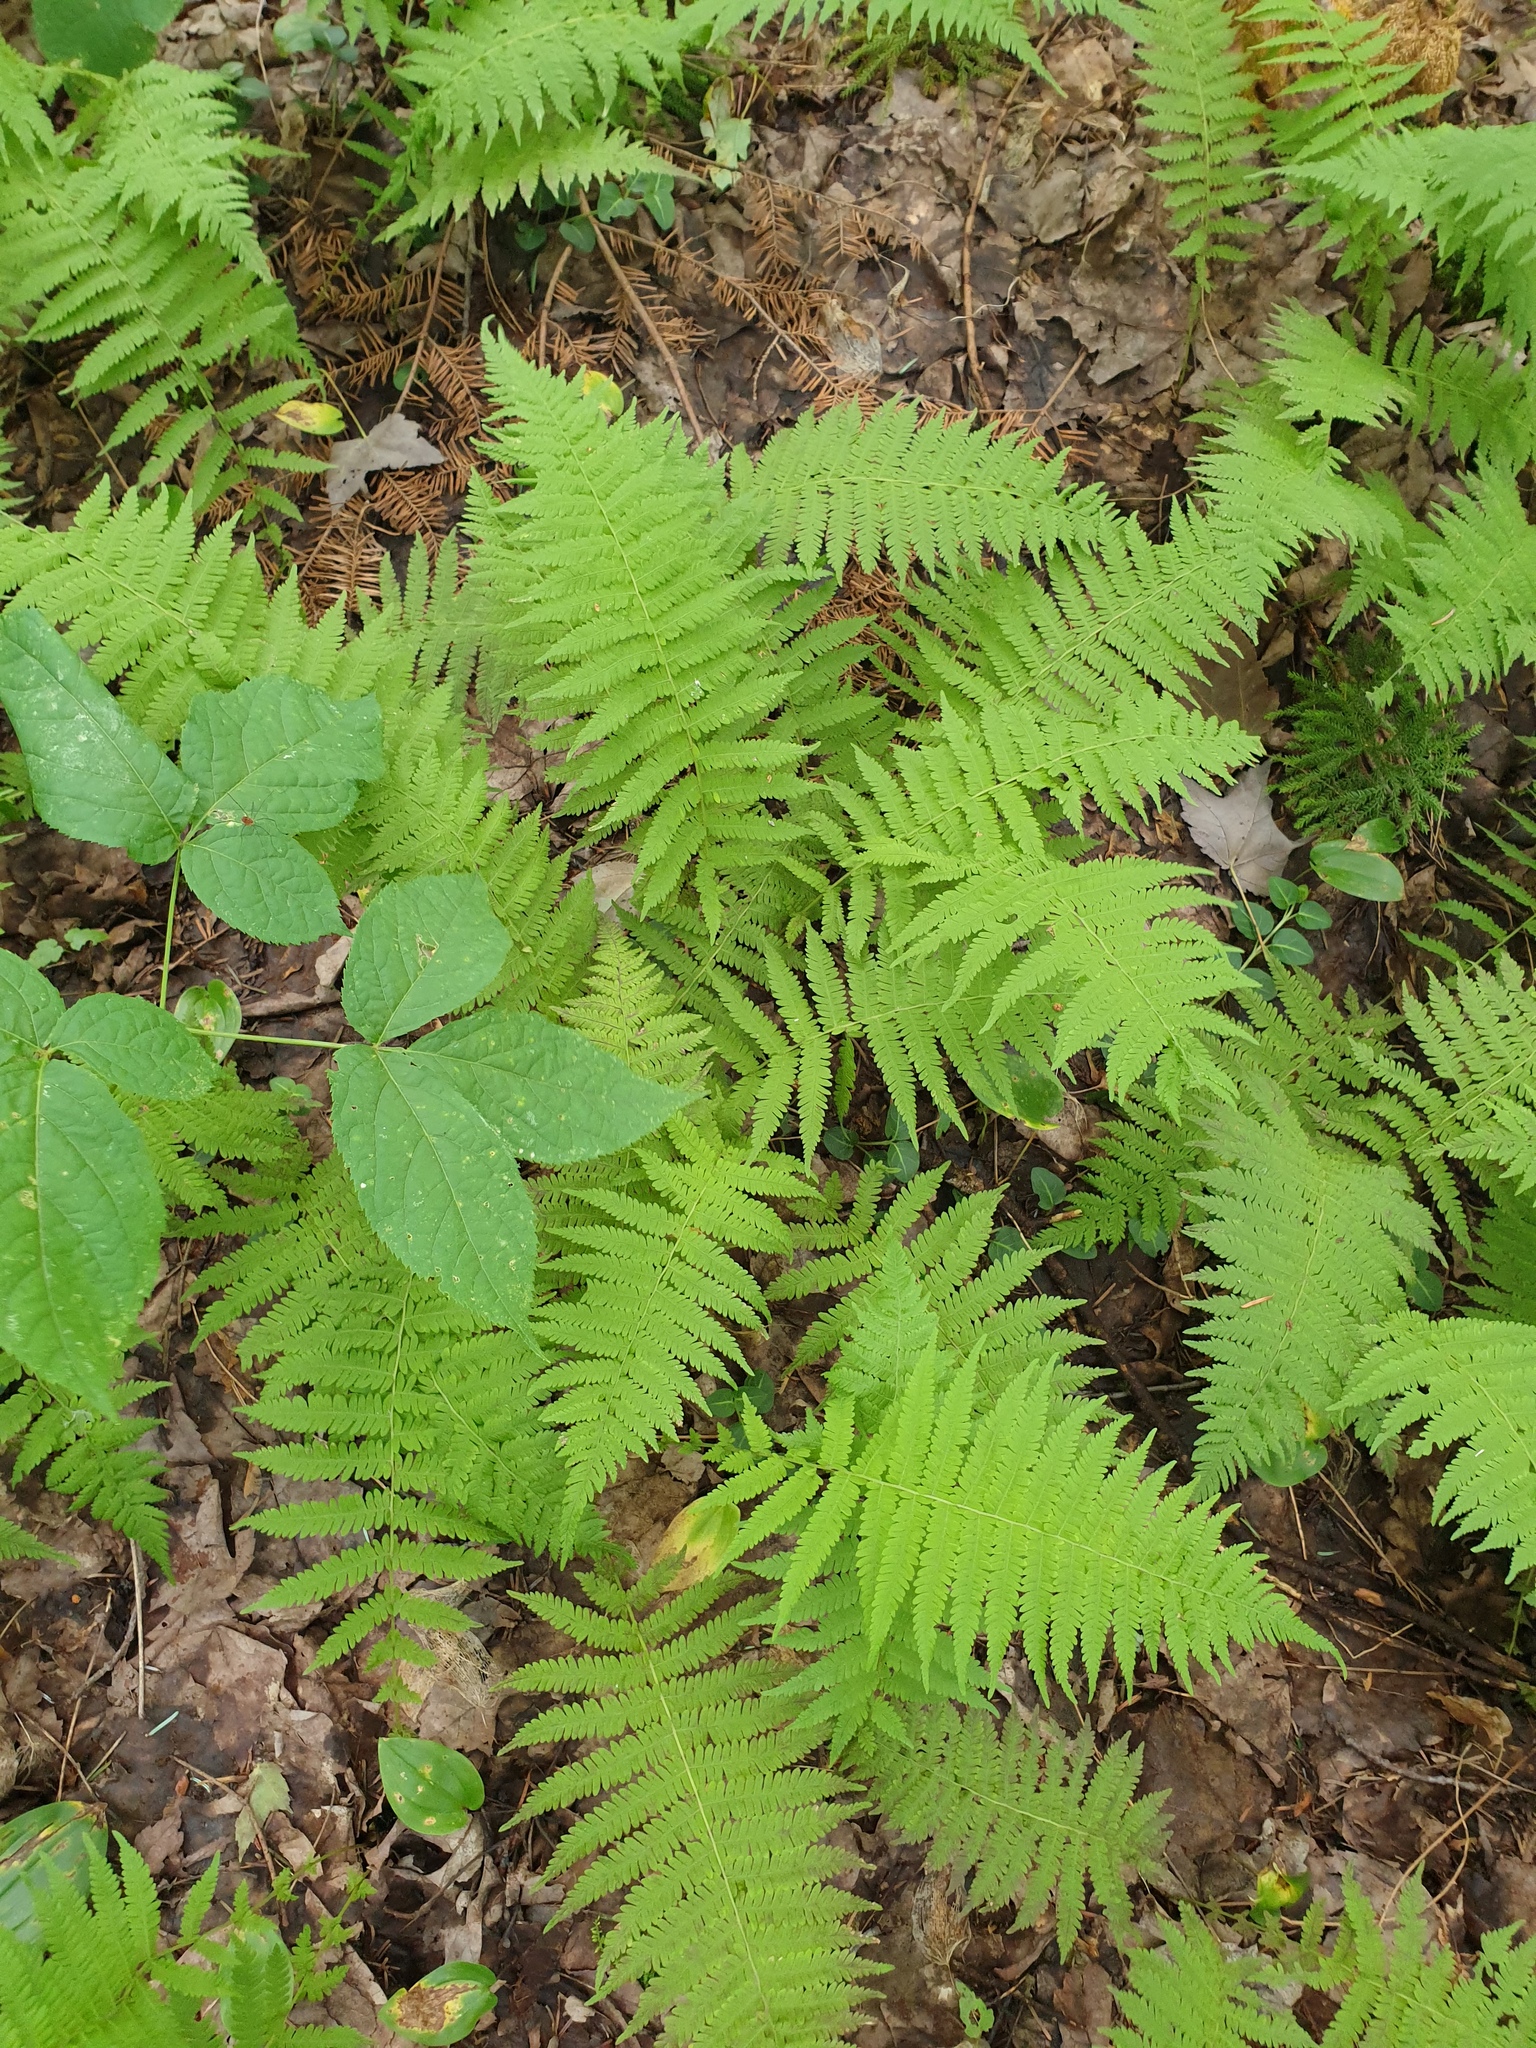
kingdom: Plantae
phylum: Tracheophyta
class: Polypodiopsida
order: Polypodiales
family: Thelypteridaceae
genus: Amauropelta
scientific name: Amauropelta noveboracensis
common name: New york fern
